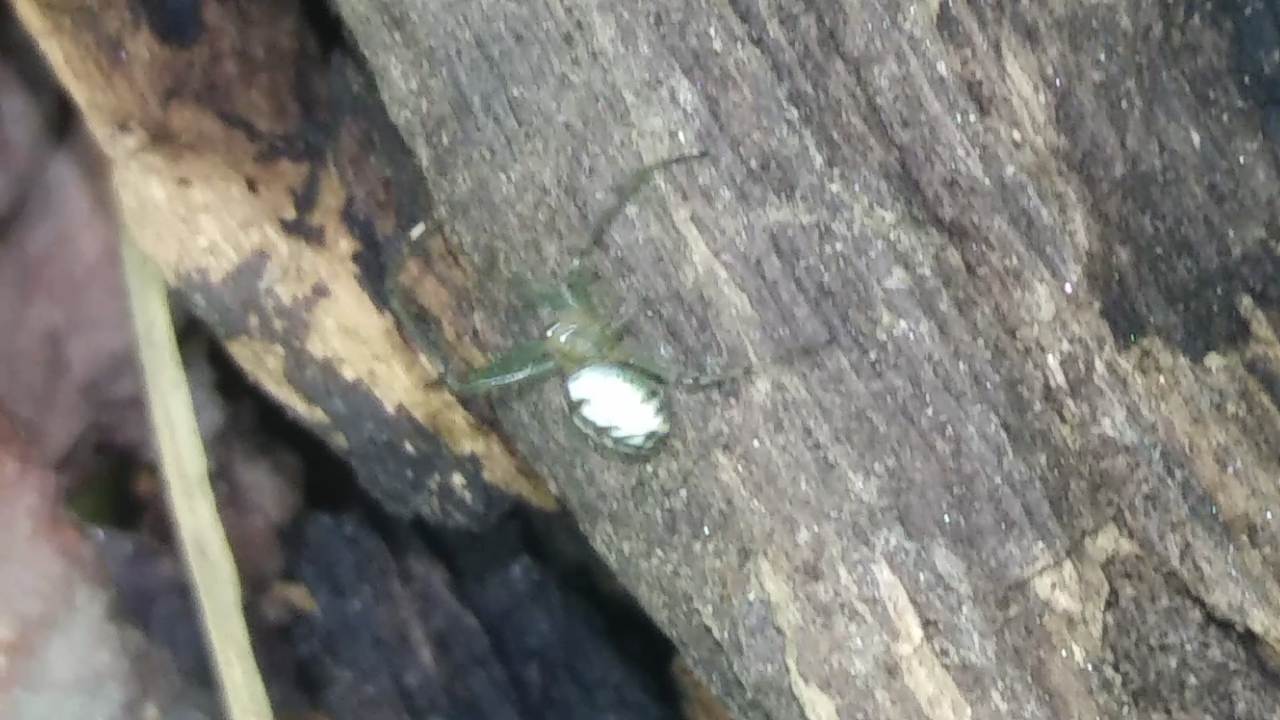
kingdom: Animalia
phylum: Arthropoda
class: Arachnida
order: Araneae
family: Tetragnathidae
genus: Leucauge
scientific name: Leucauge venusta
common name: Longjawed orb weavers
